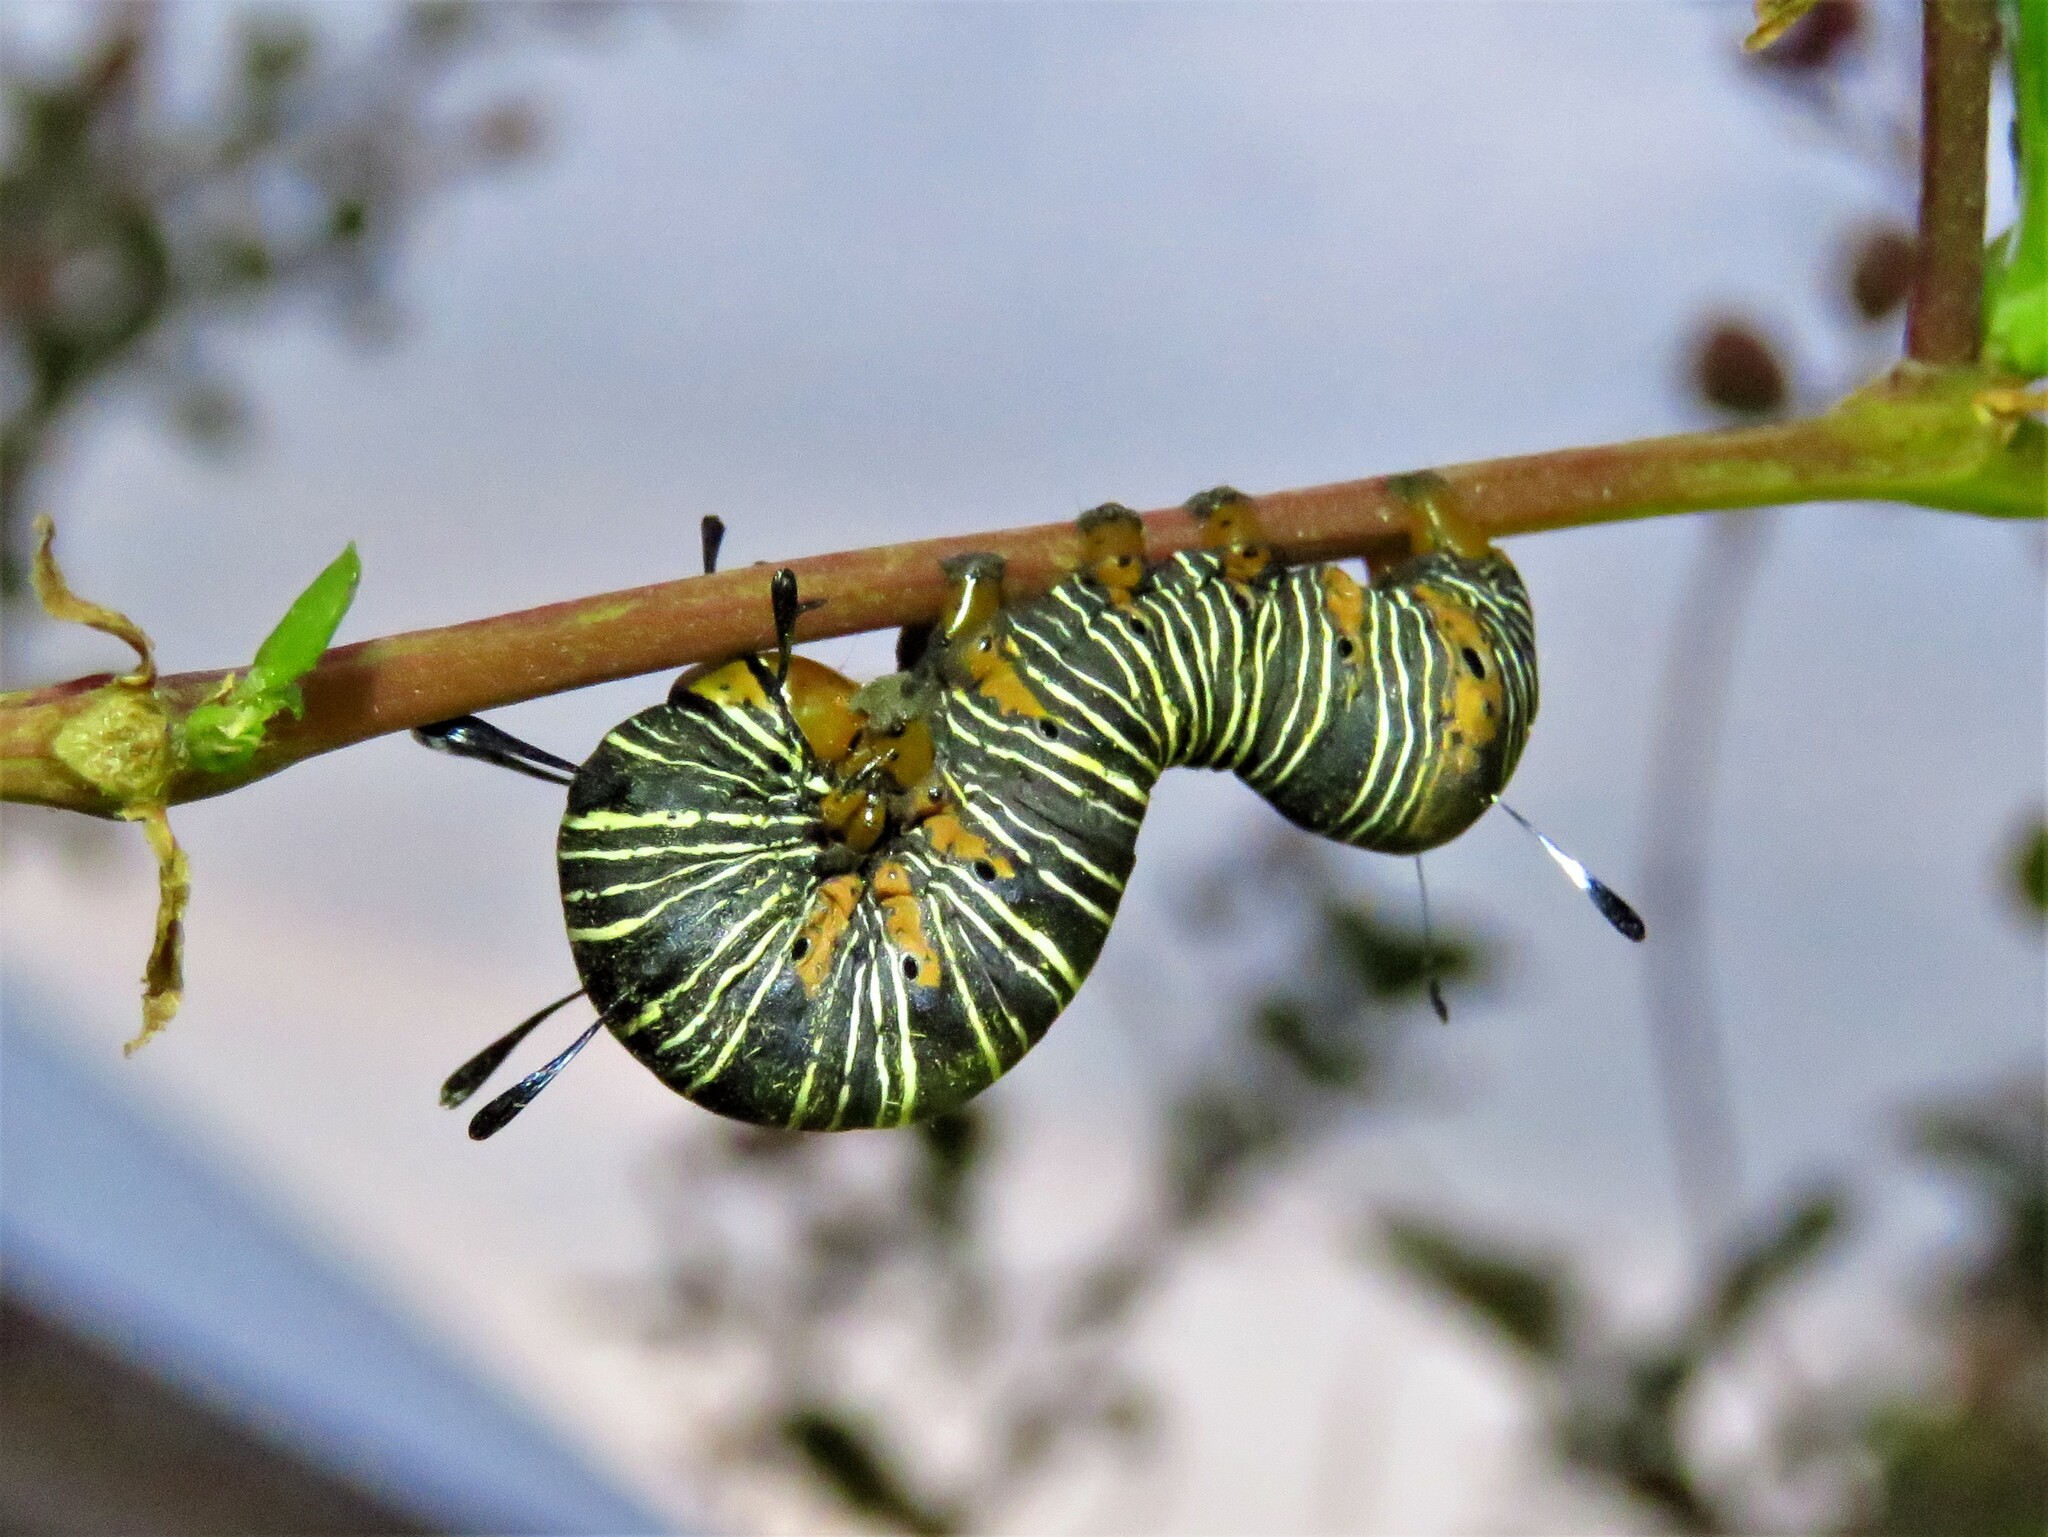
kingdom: Animalia
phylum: Arthropoda
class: Insecta
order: Lepidoptera
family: Noctuidae
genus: Xerociris
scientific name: Xerociris wilsonii
